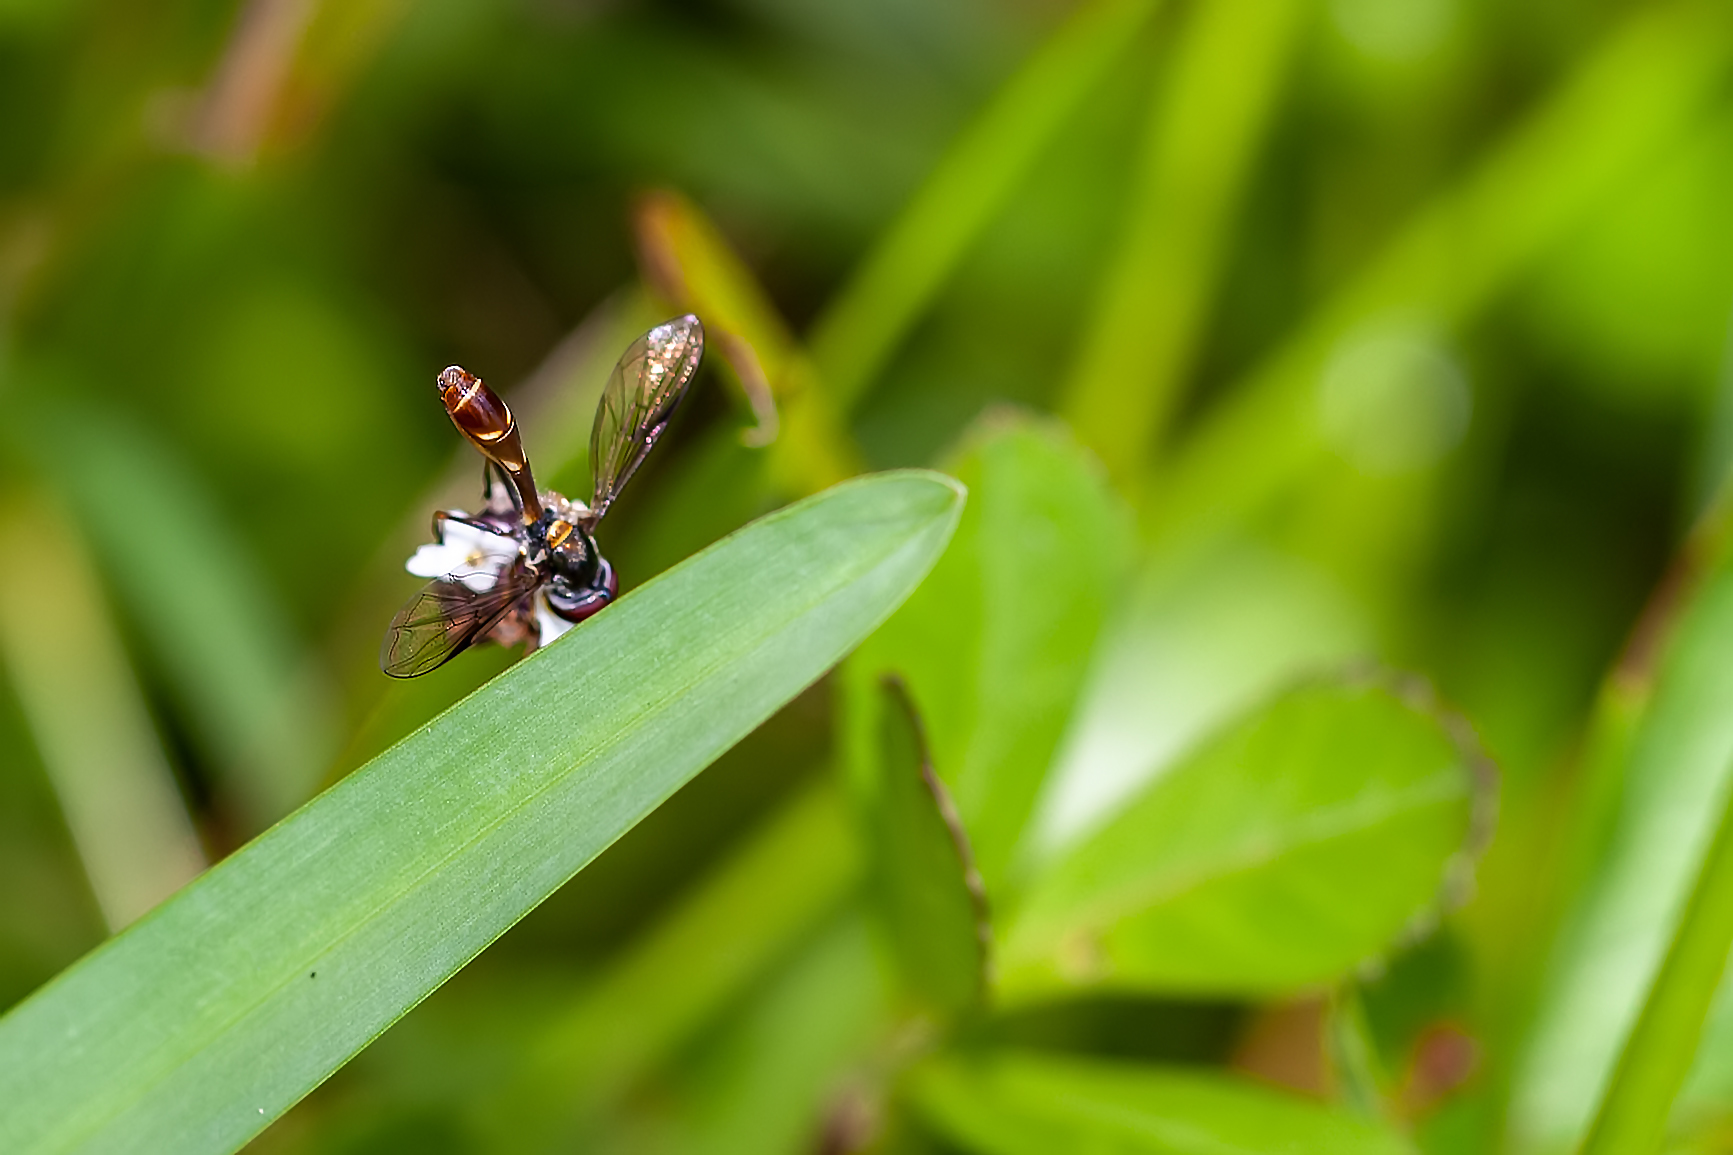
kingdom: Animalia
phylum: Arthropoda
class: Insecta
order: Diptera
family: Syrphidae
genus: Dioprosopa
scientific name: Dioprosopa clavatus
